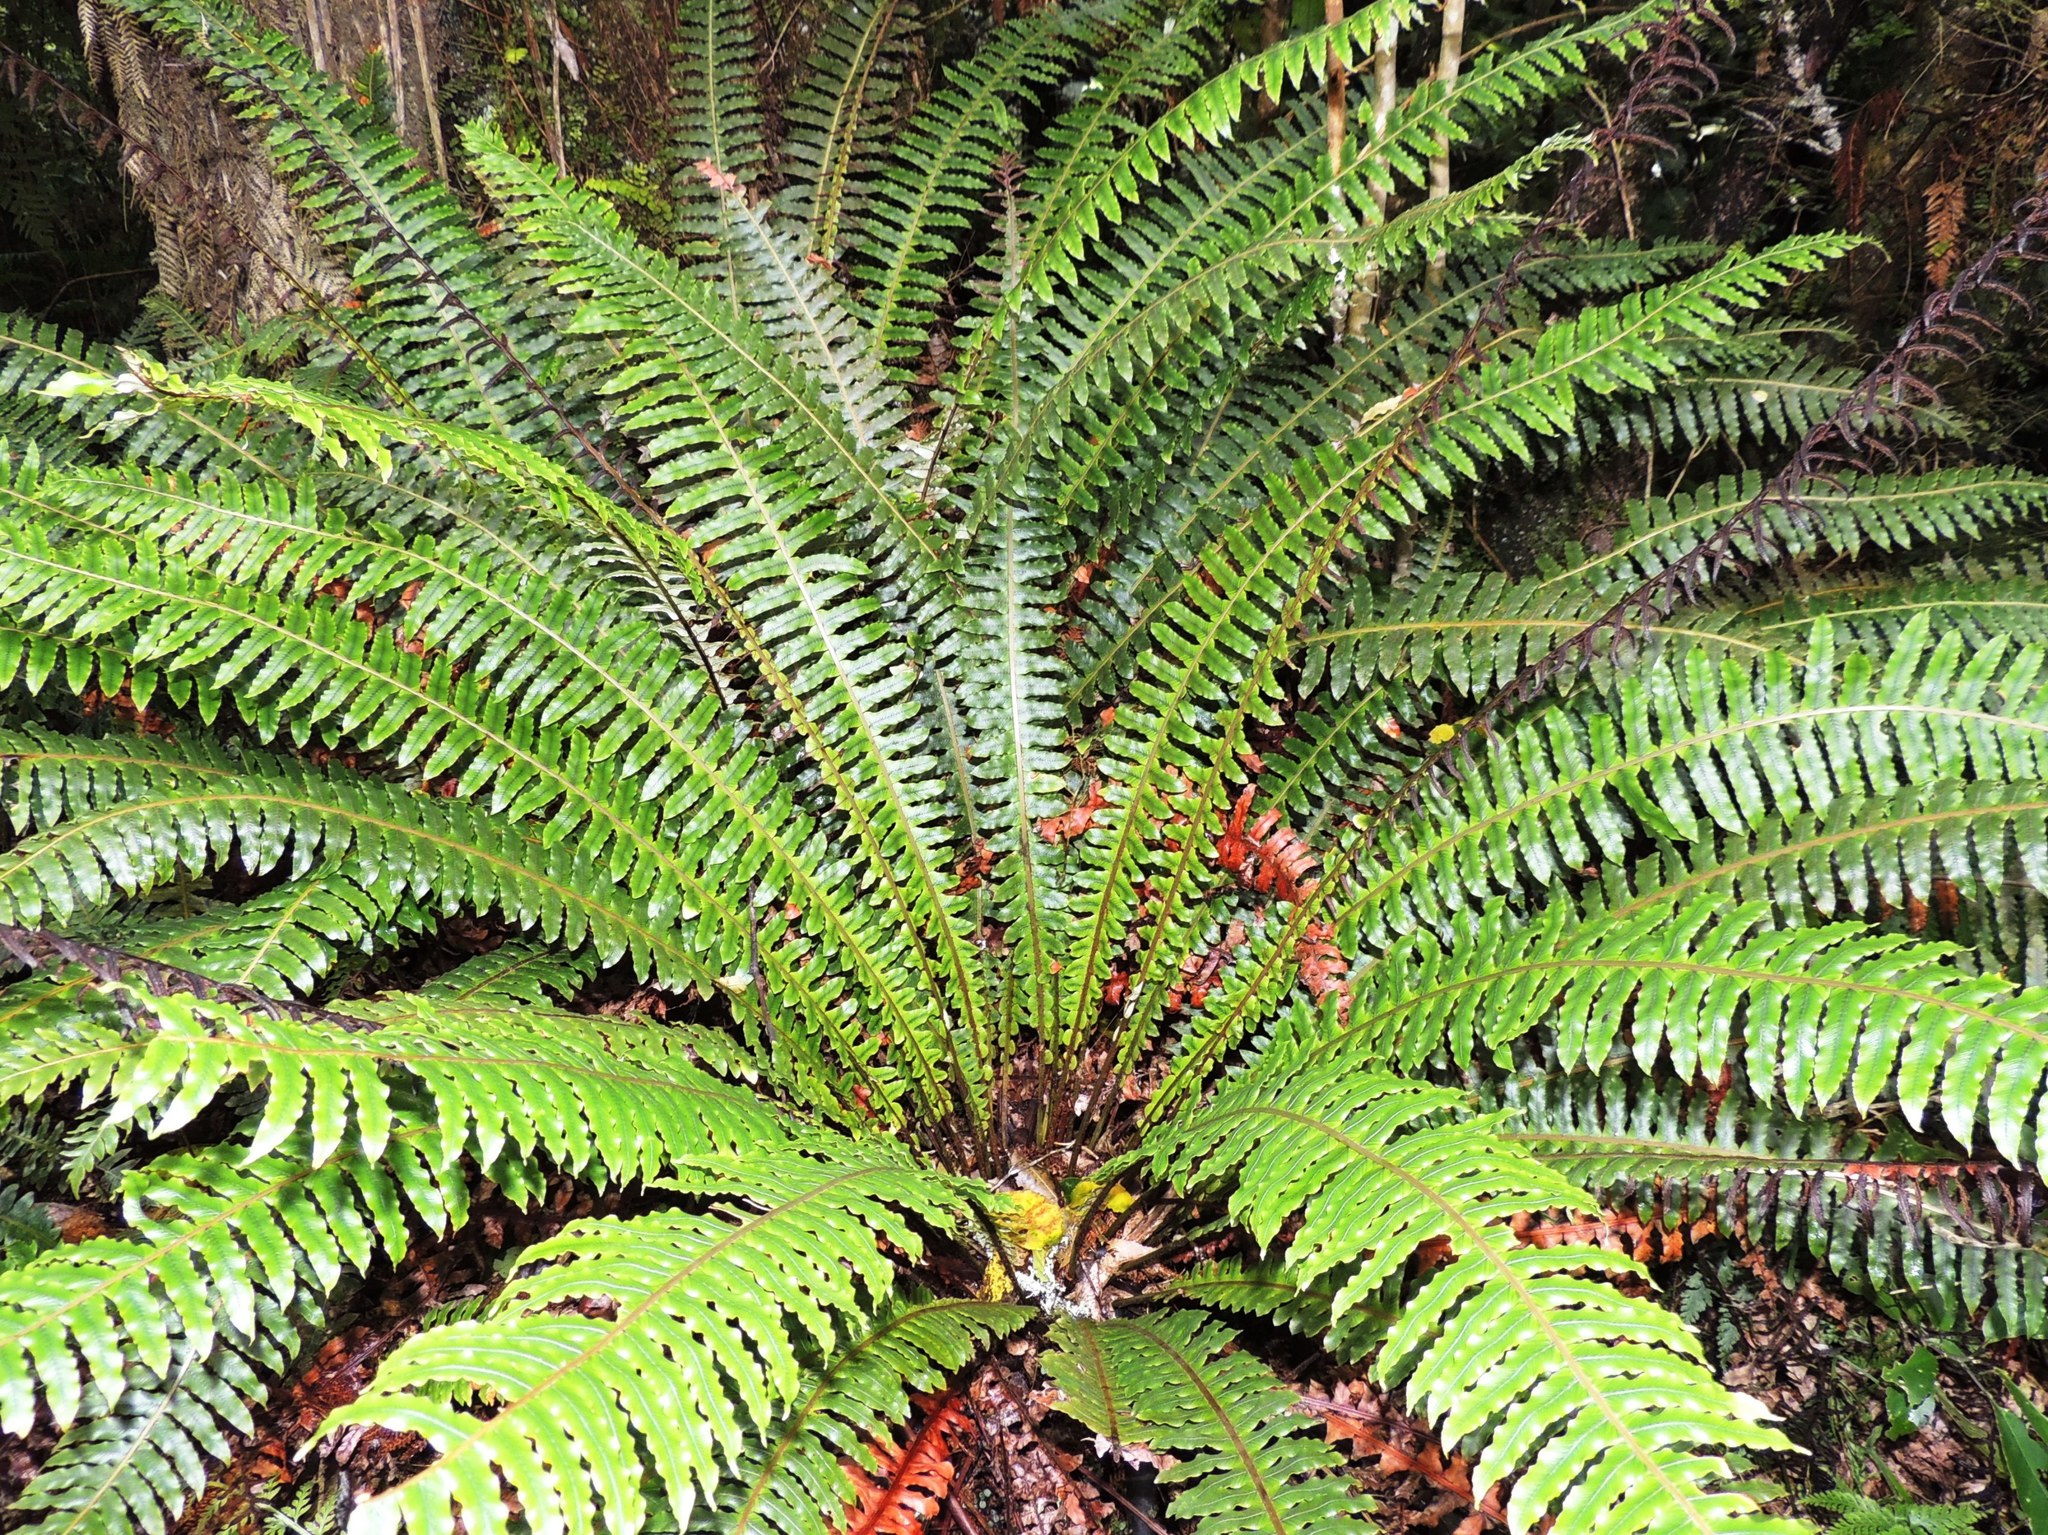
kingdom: Plantae
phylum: Tracheophyta
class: Polypodiopsida
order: Polypodiales
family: Blechnaceae
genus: Lomaria
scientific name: Lomaria discolor
